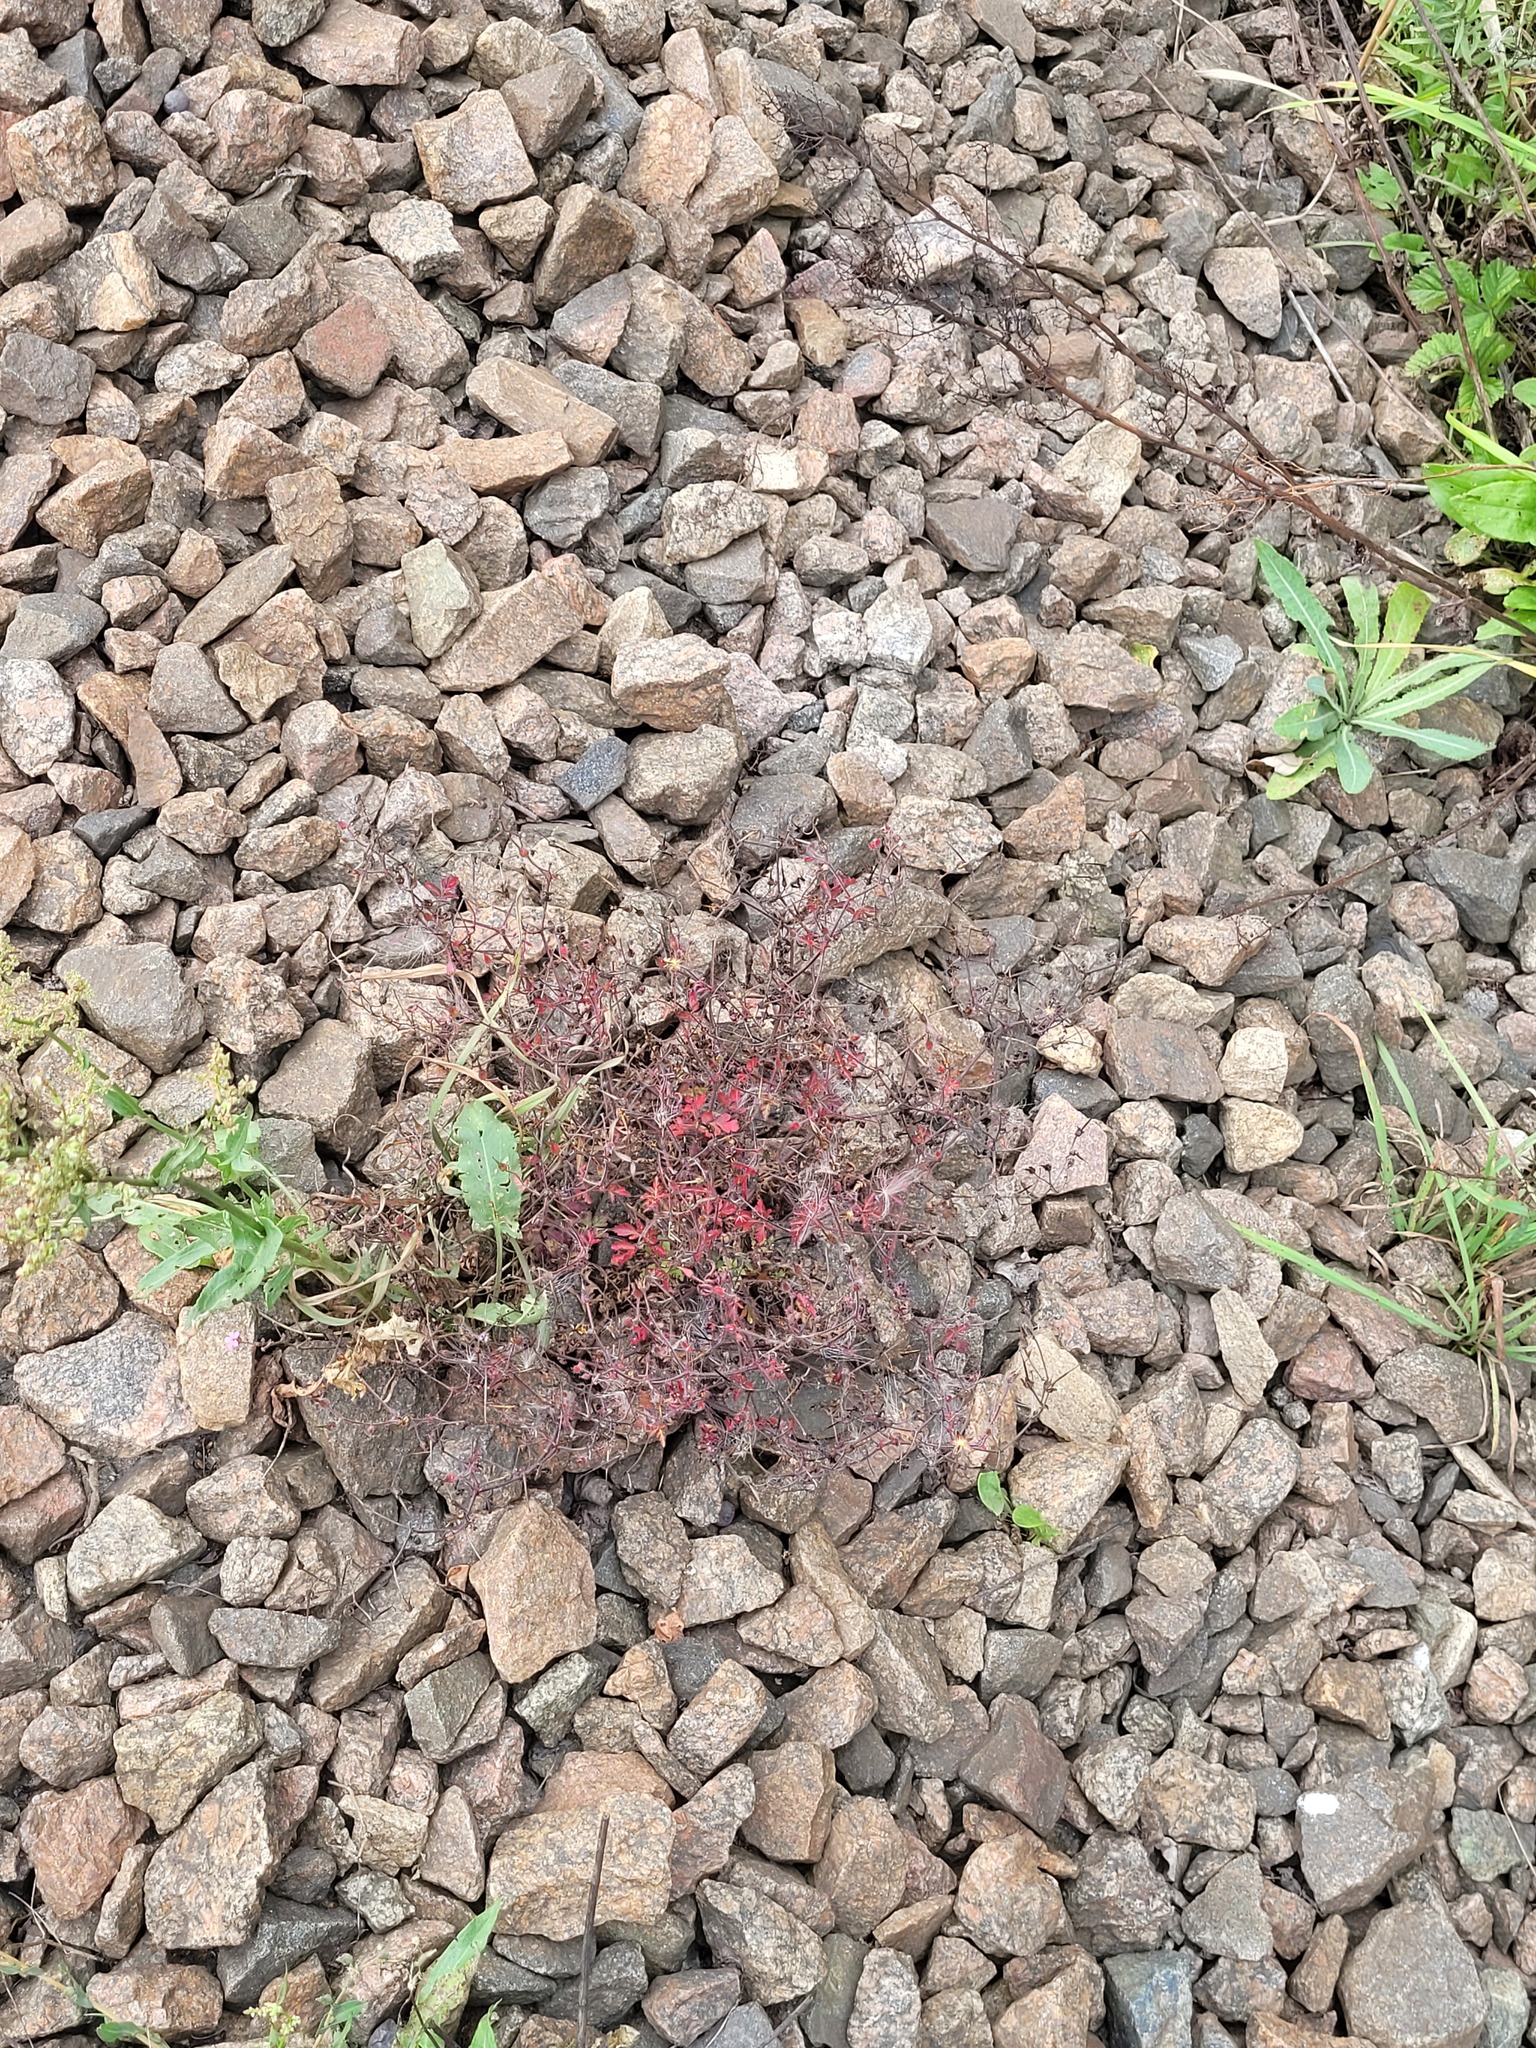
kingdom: Plantae
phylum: Tracheophyta
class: Magnoliopsida
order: Geraniales
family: Geraniaceae
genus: Geranium
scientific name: Geranium robertianum
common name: Herb-robert
